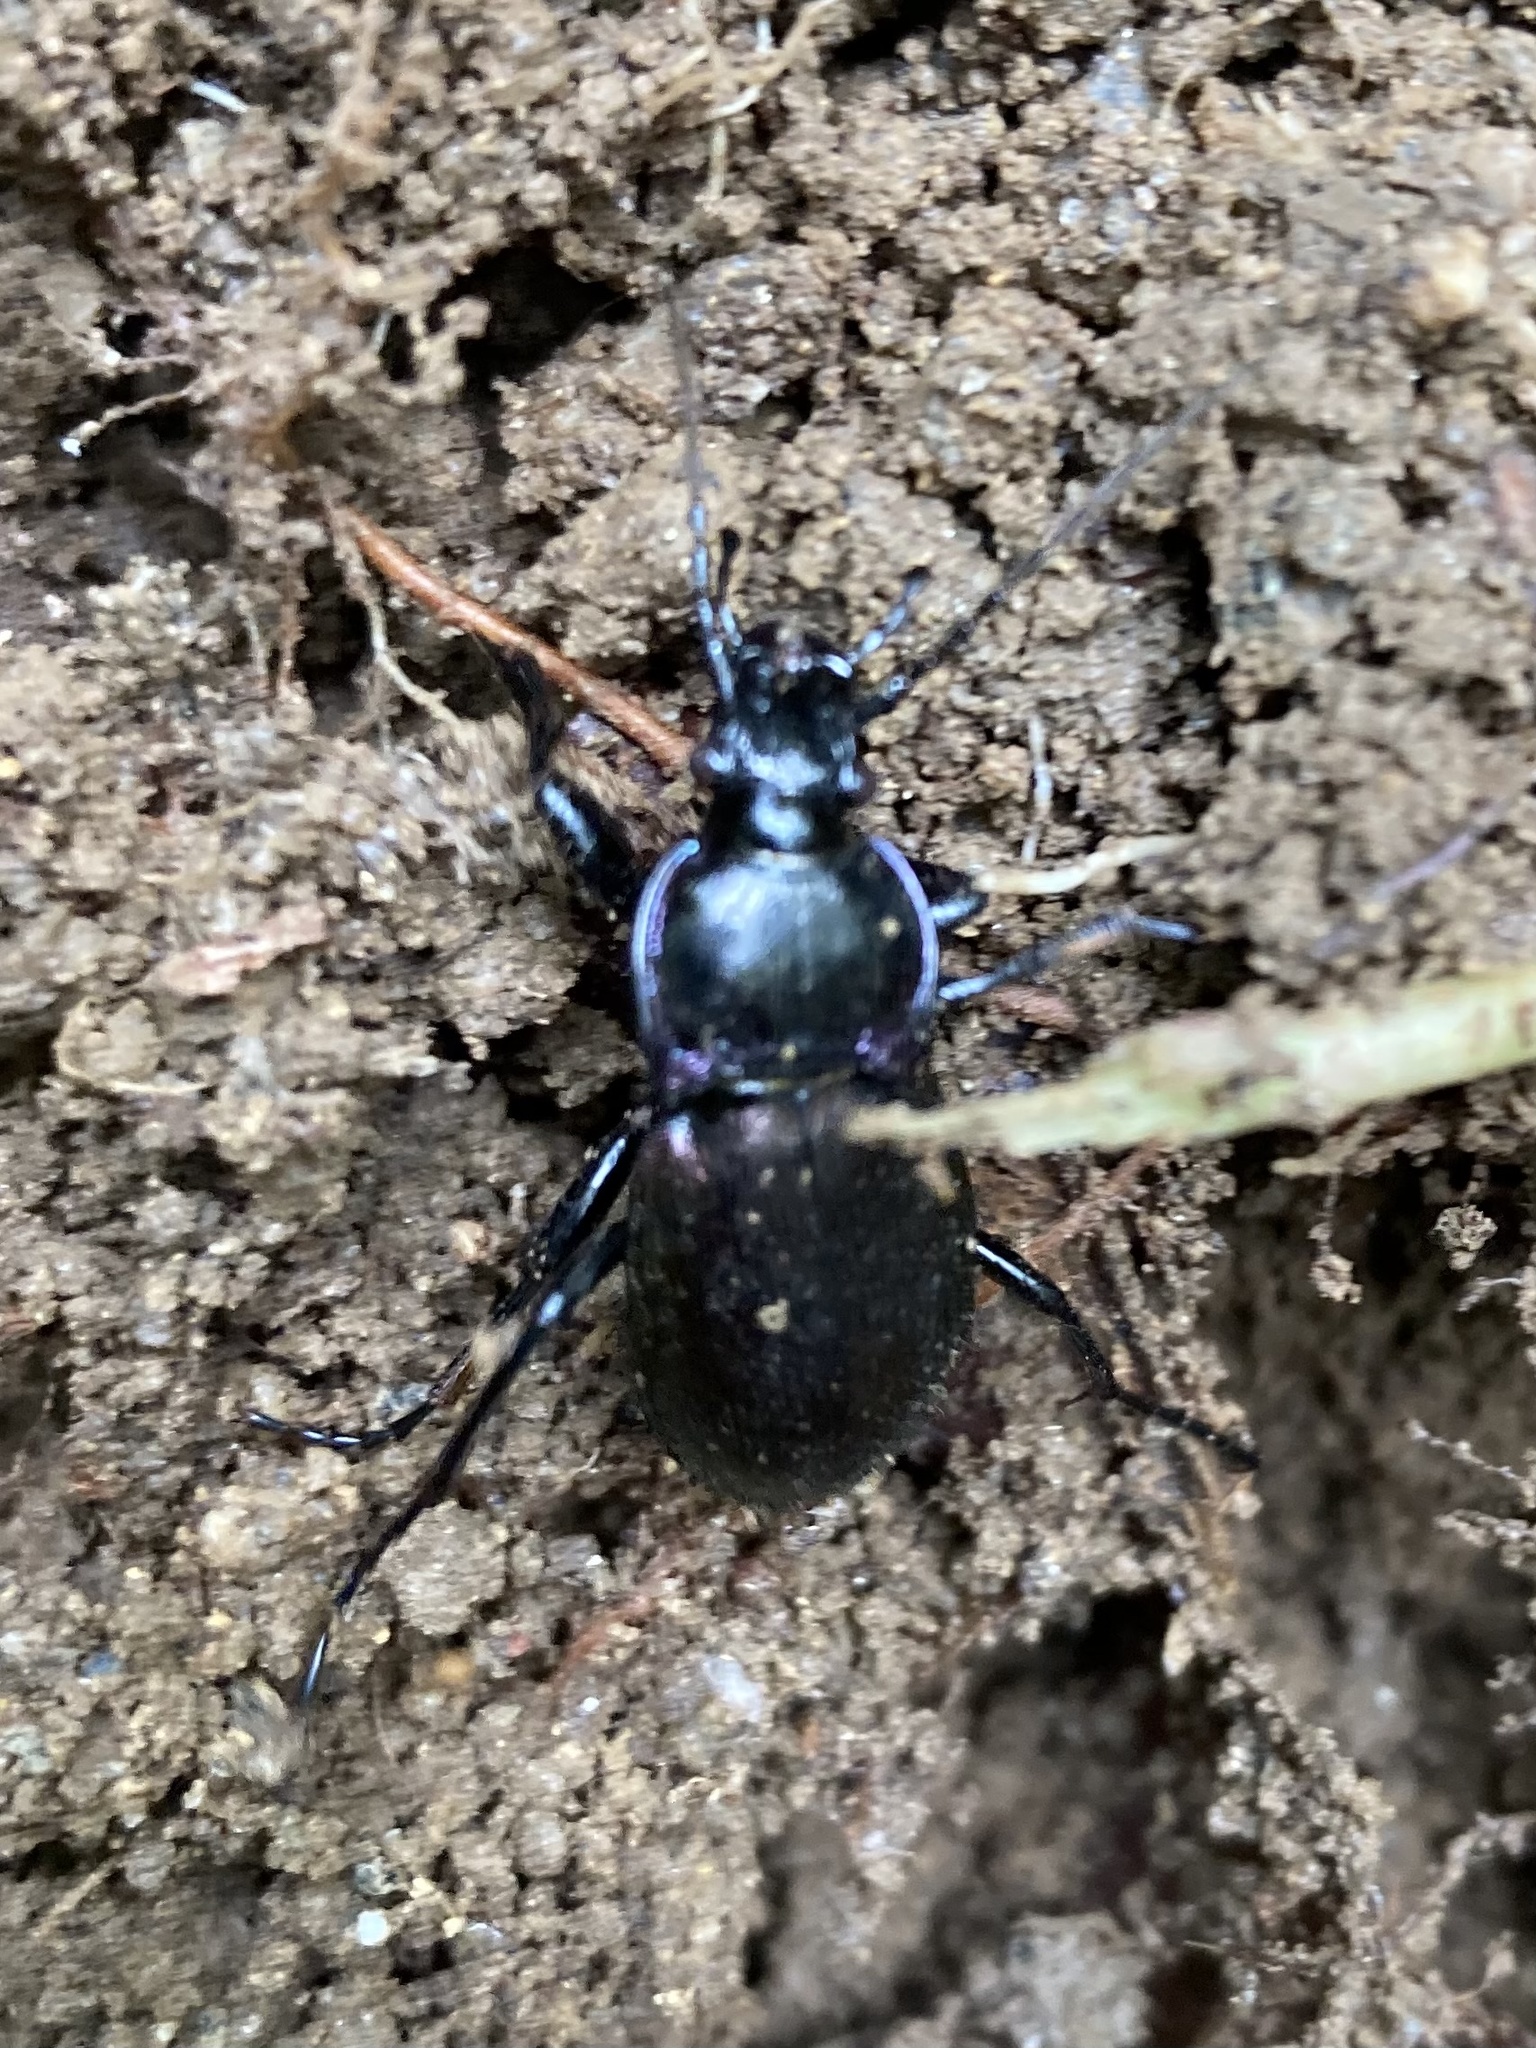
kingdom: Animalia
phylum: Arthropoda
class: Insecta
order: Coleoptera
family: Carabidae
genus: Carabus
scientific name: Carabus nemoralis
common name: European ground beetle
